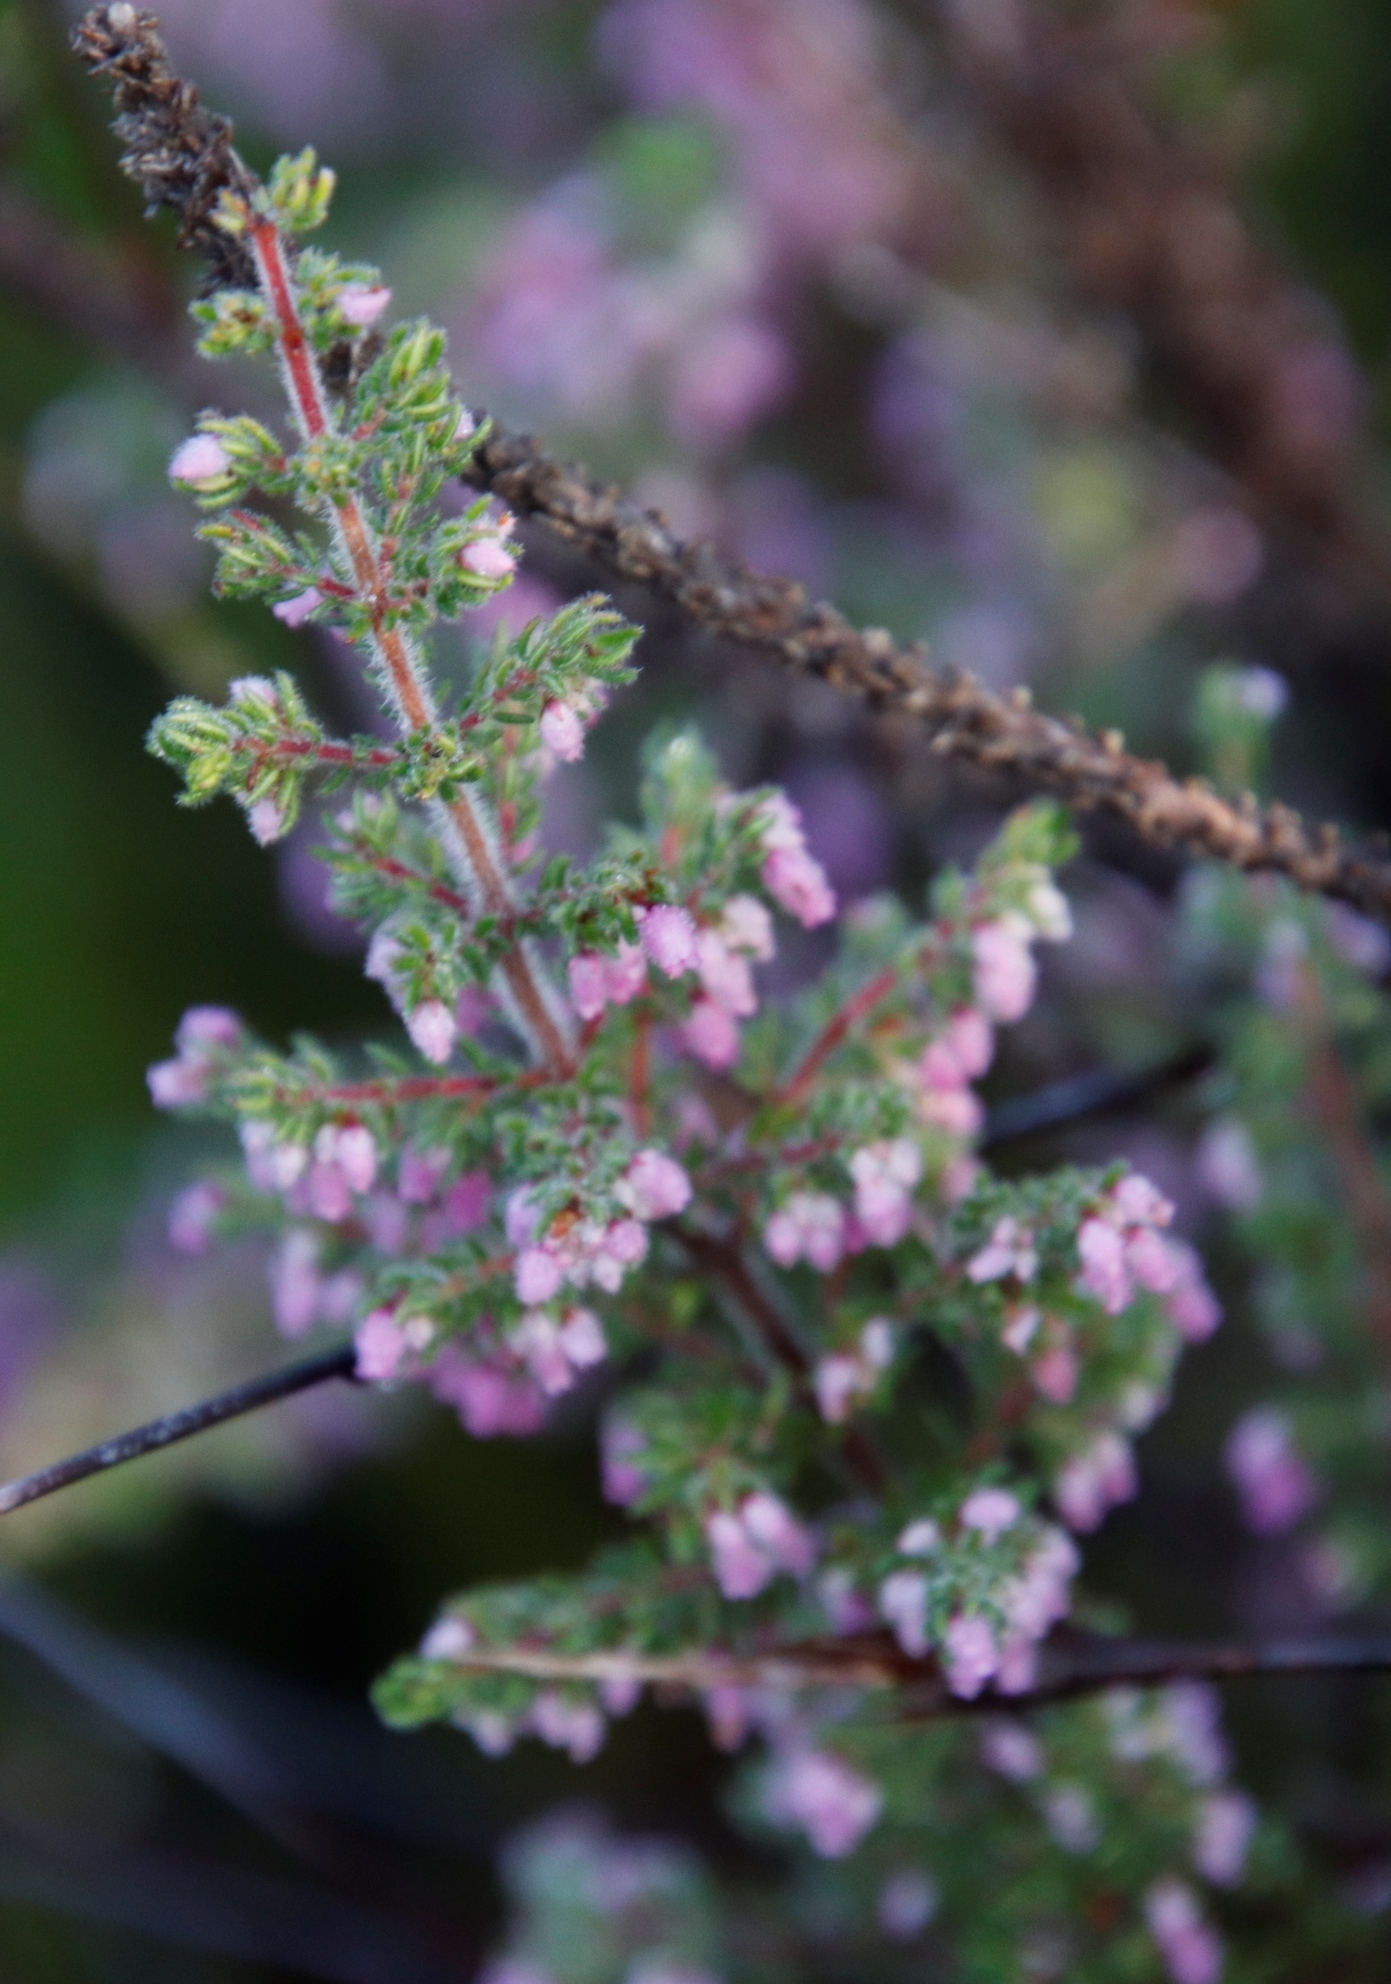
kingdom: Plantae
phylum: Tracheophyta
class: Magnoliopsida
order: Ericales
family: Ericaceae
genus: Erica
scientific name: Erica hirtiflora
